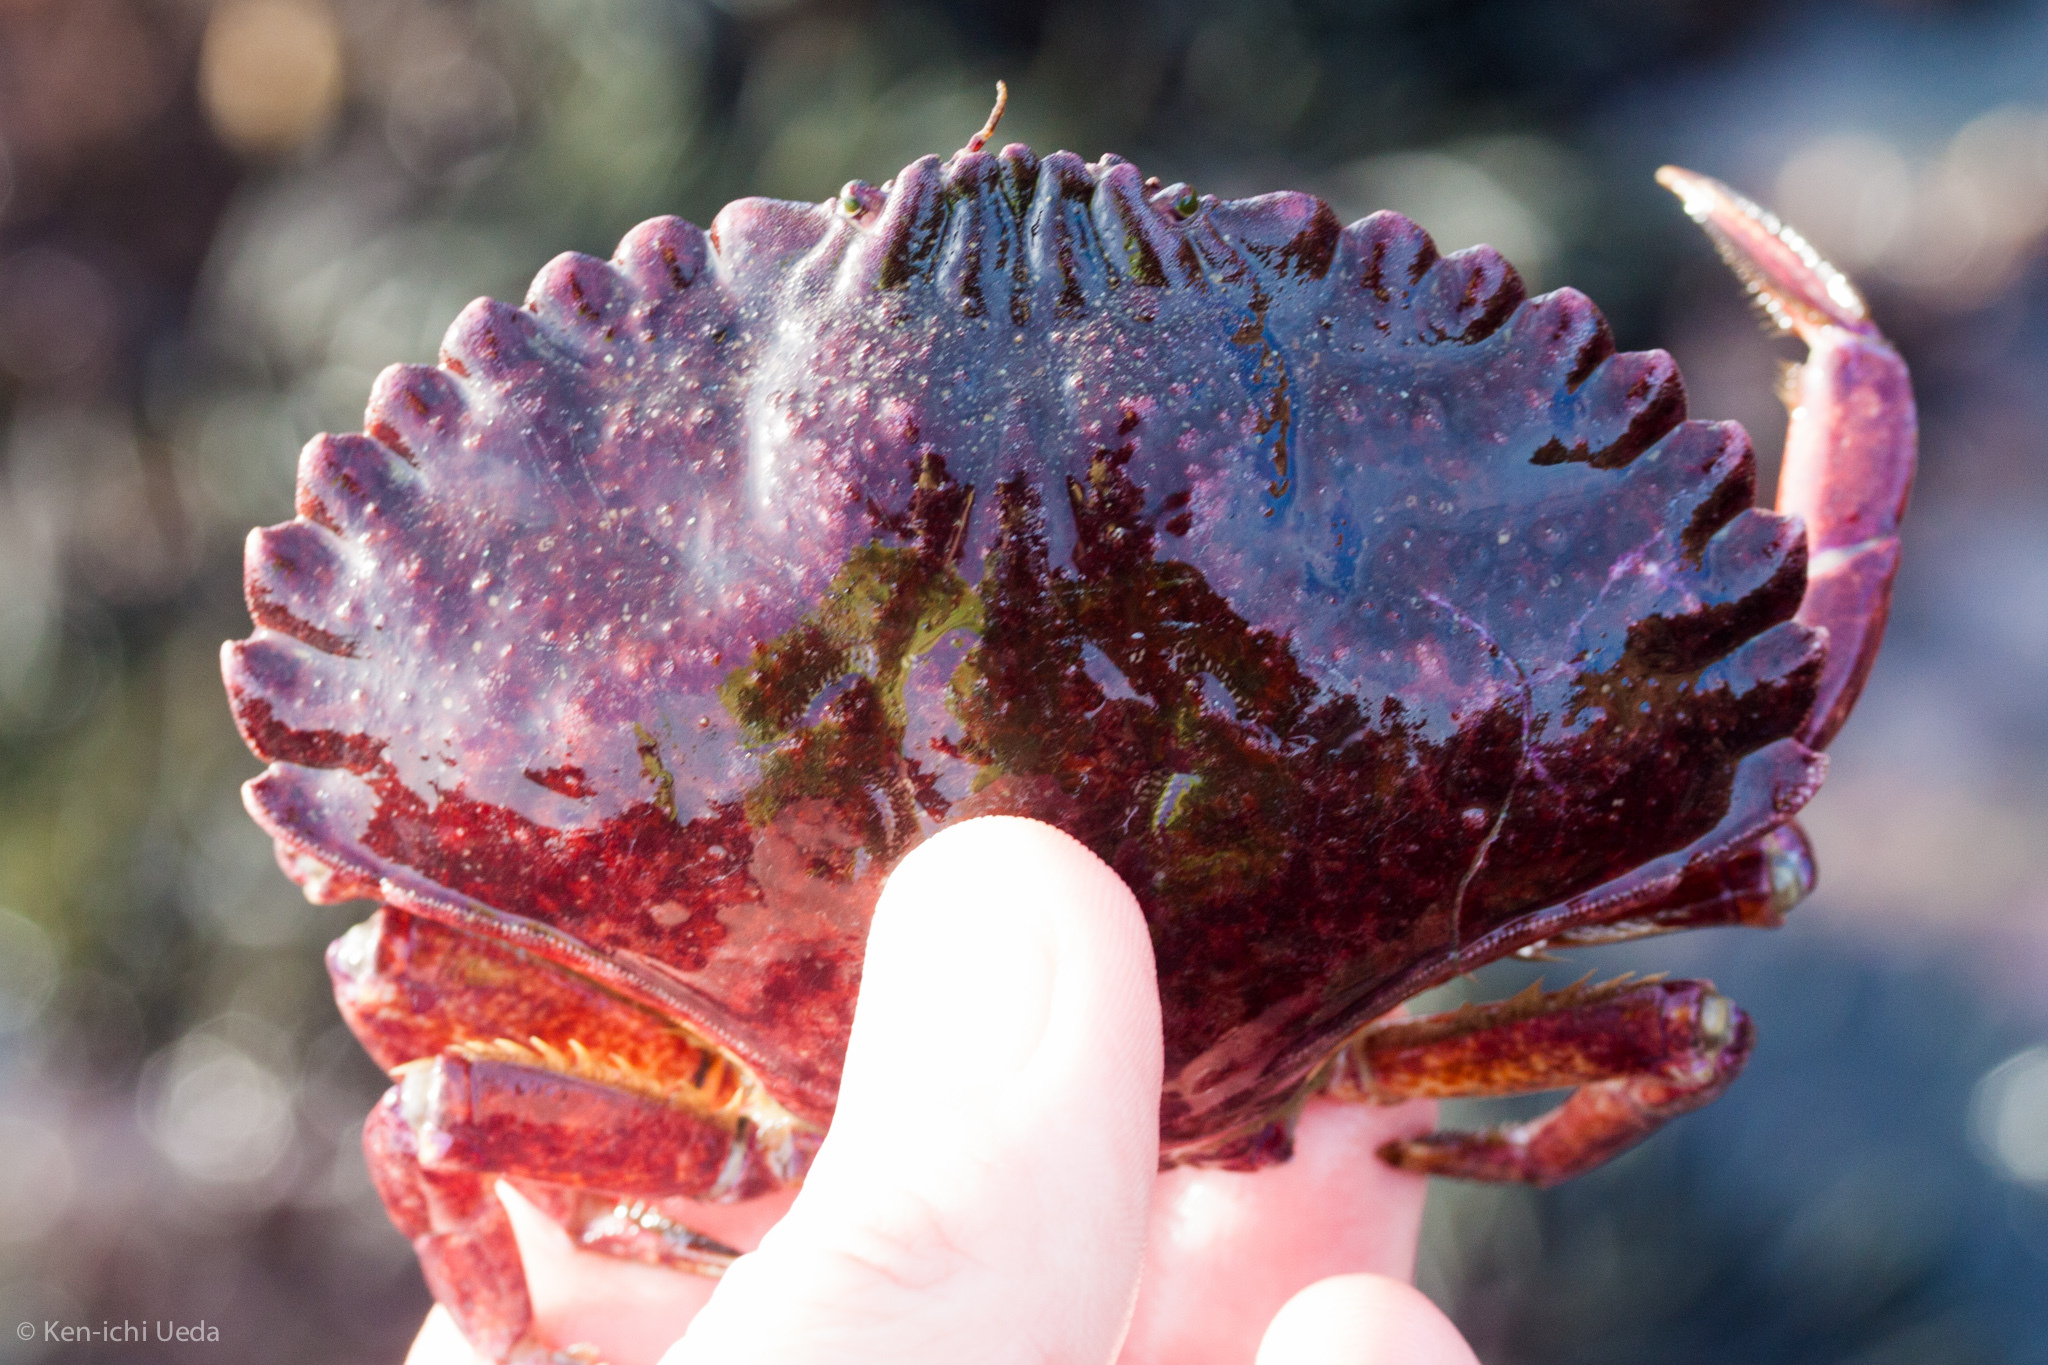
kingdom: Animalia
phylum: Arthropoda
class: Malacostraca
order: Decapoda
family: Cancridae
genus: Cancer
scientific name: Cancer productus
